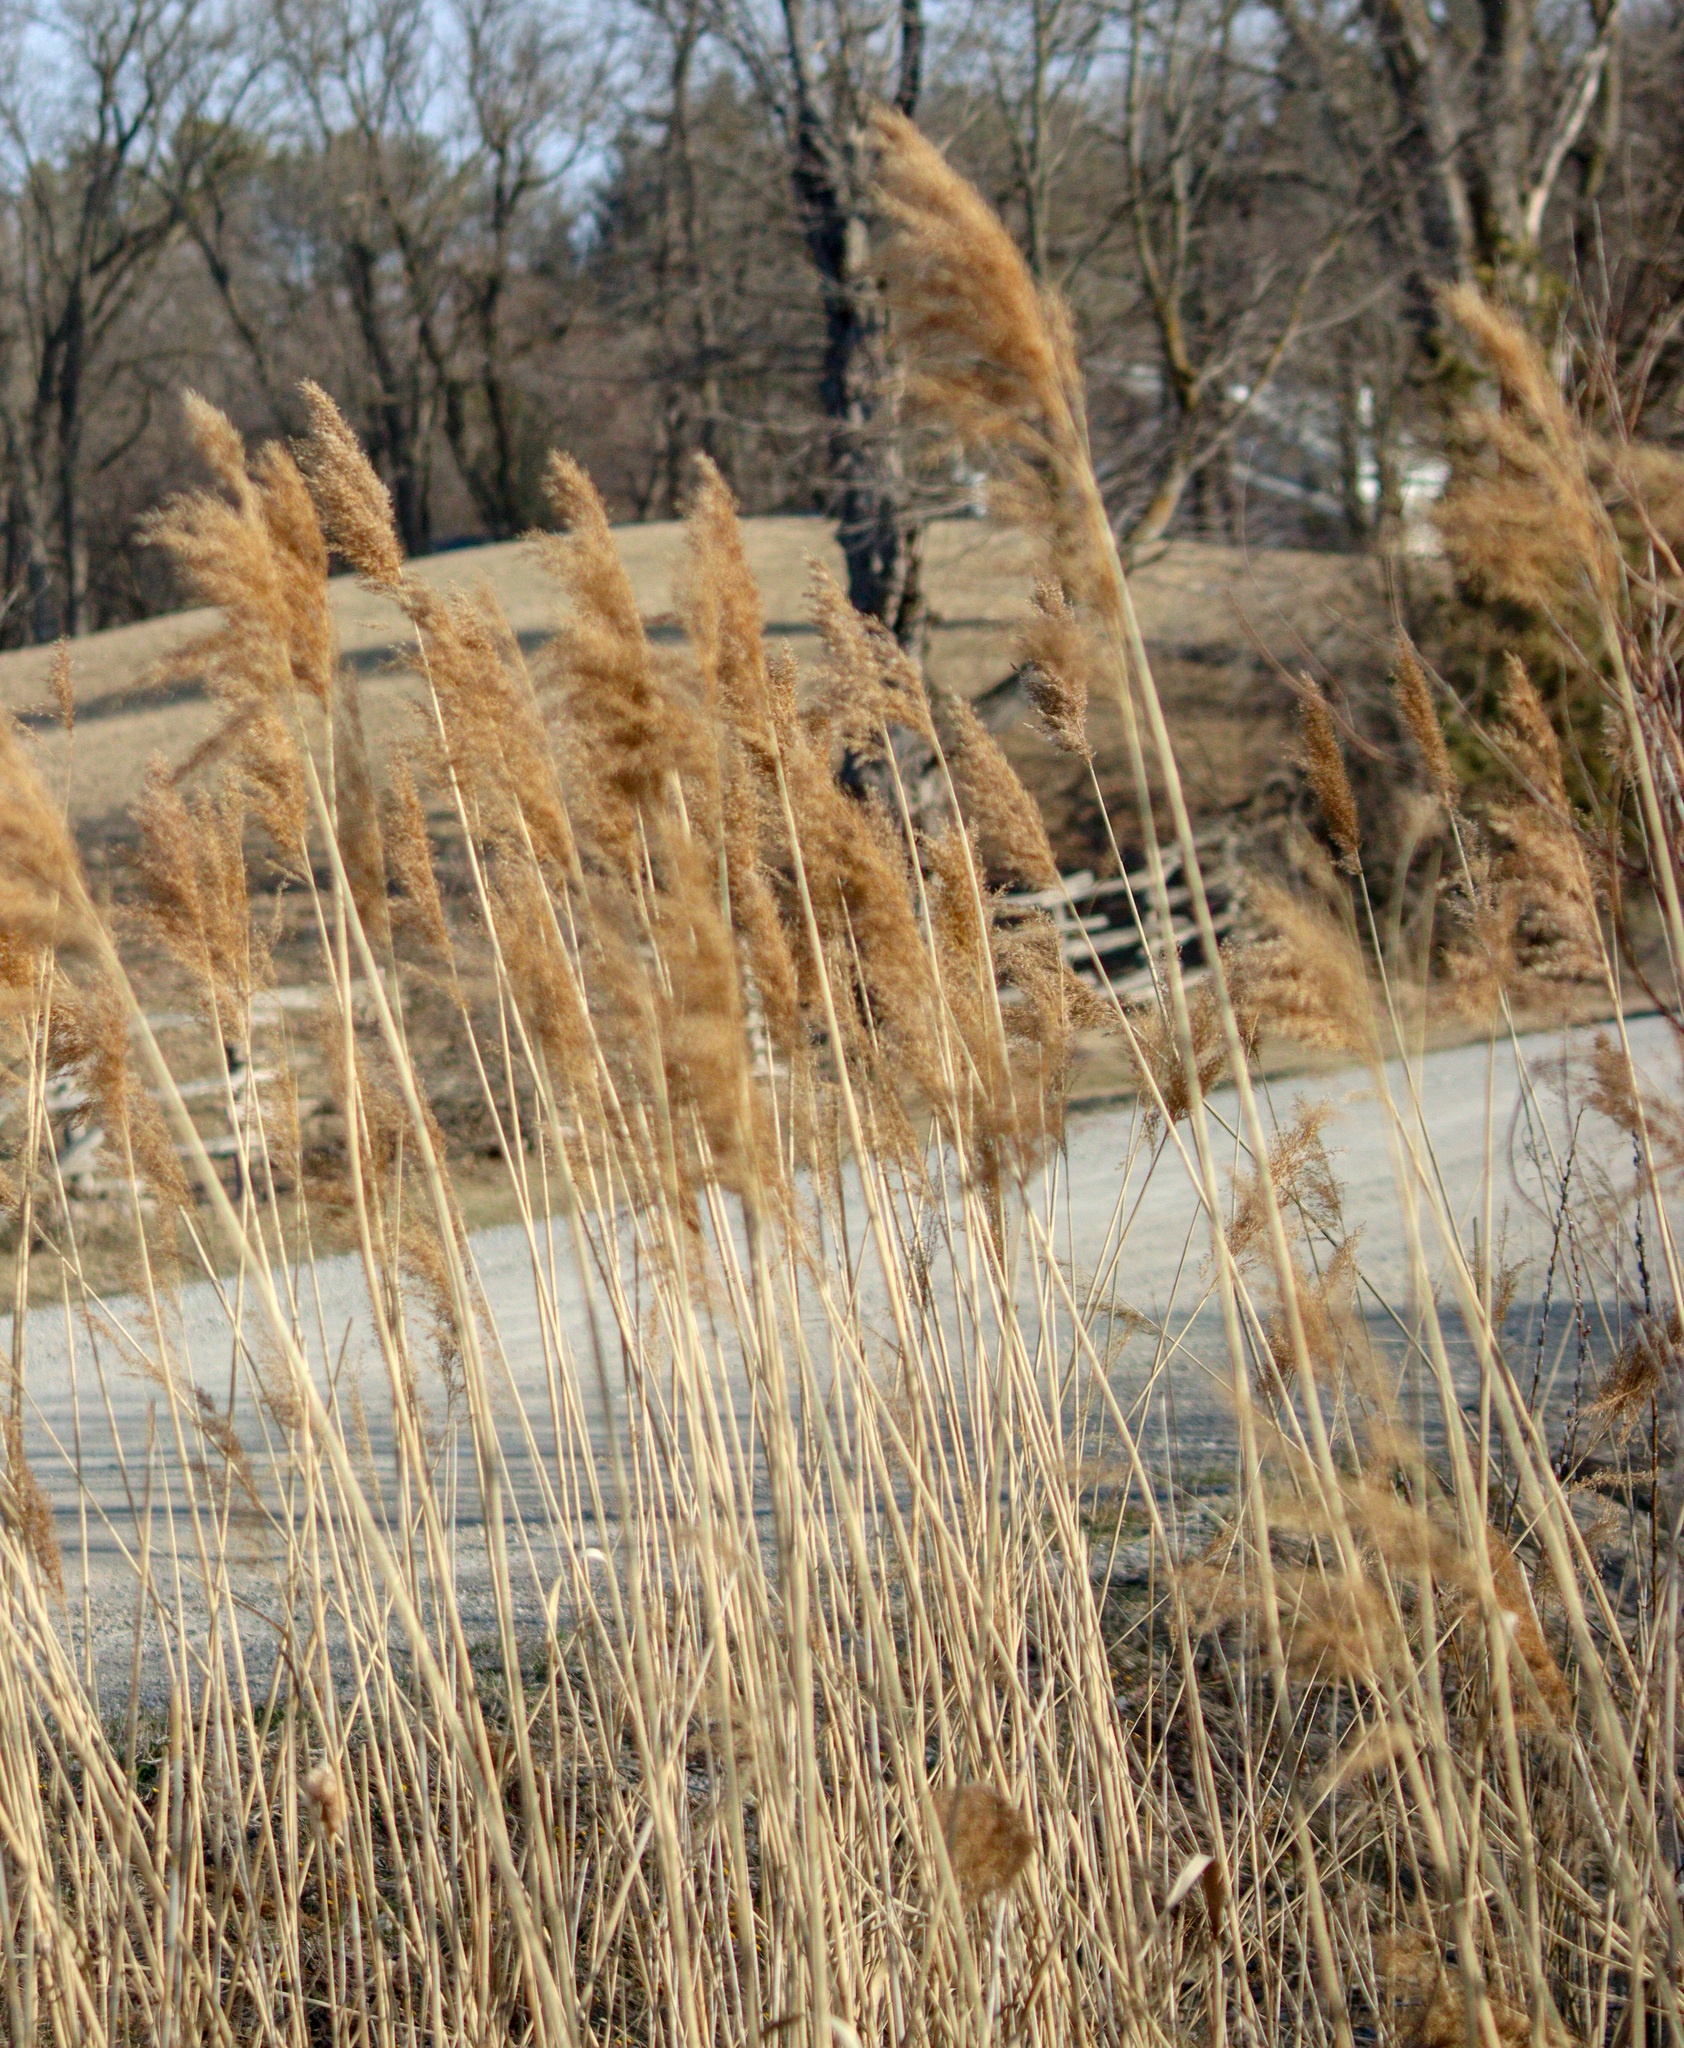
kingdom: Plantae
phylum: Tracheophyta
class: Liliopsida
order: Poales
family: Poaceae
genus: Phragmites
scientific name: Phragmites australis
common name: Common reed
